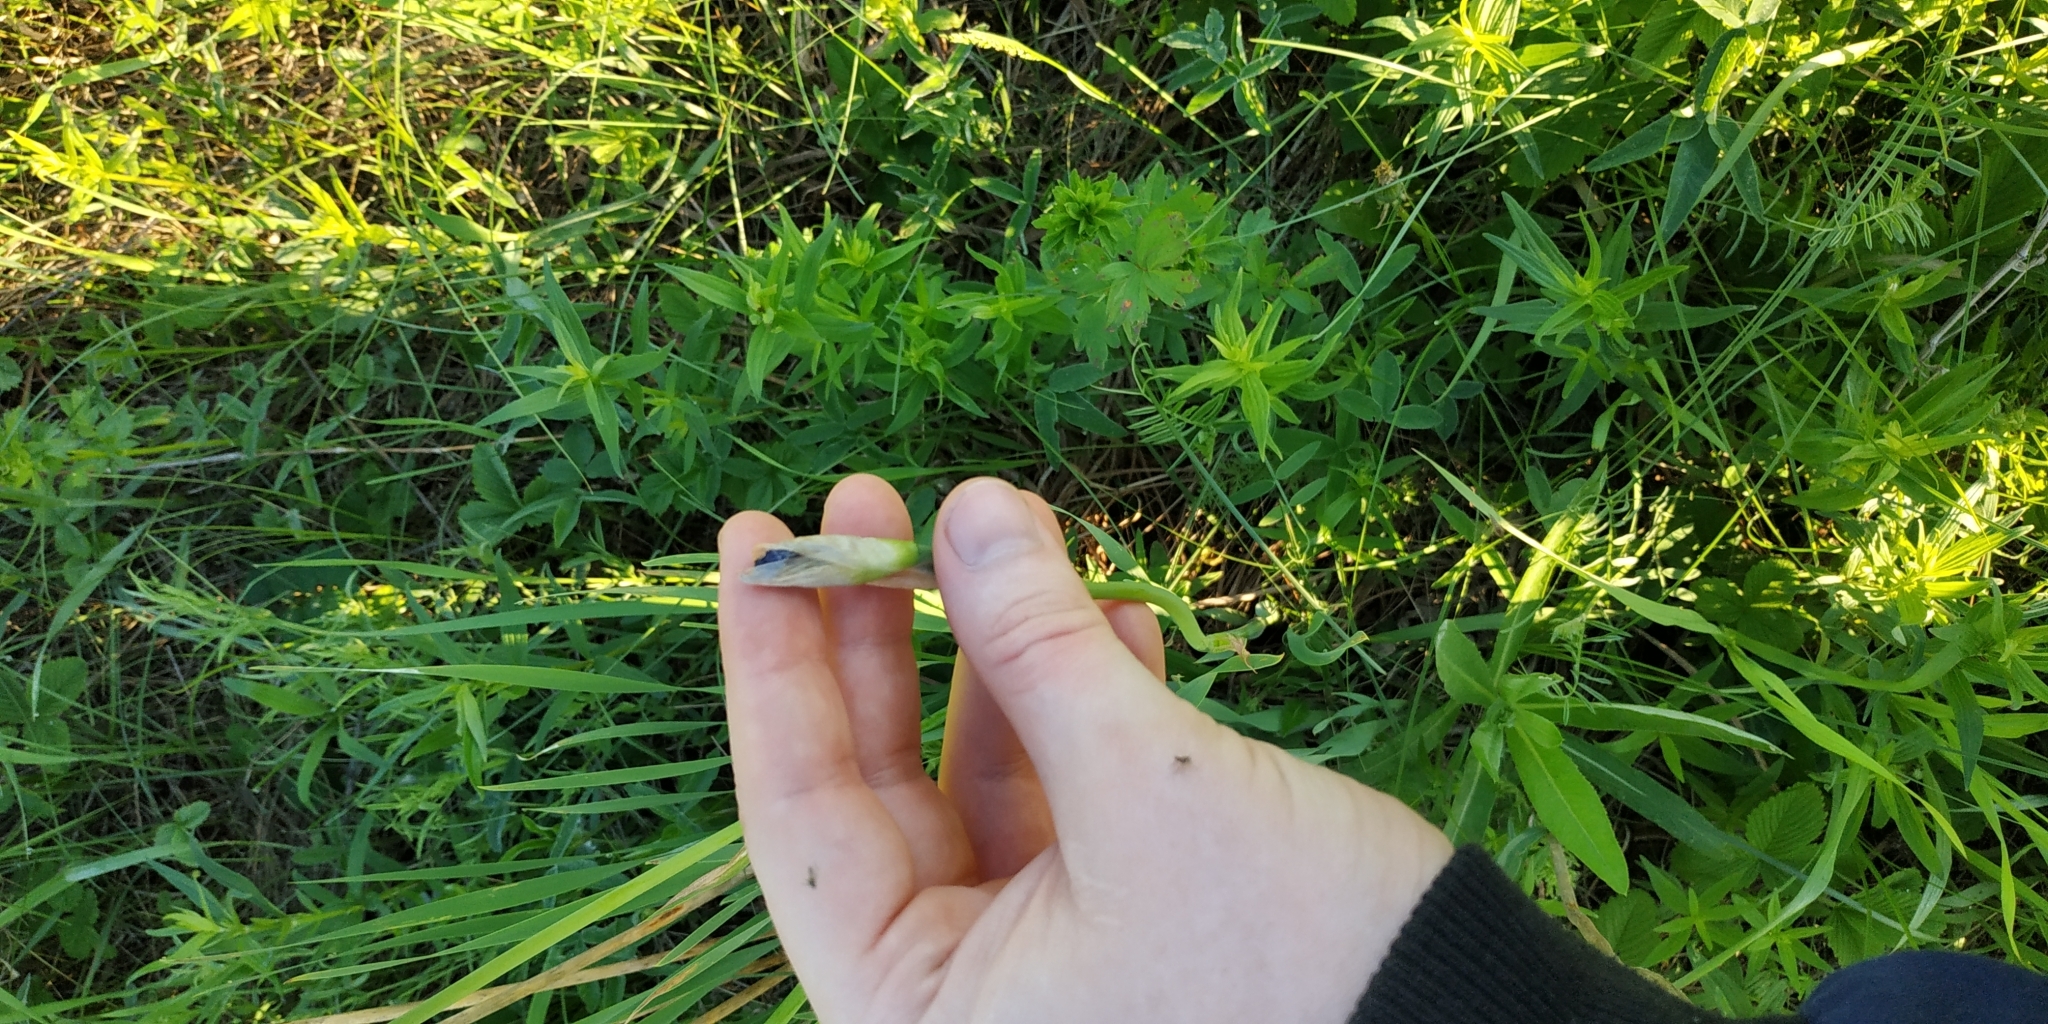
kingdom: Plantae
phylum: Tracheophyta
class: Liliopsida
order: Asparagales
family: Iridaceae
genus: Iris
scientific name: Iris sibirica
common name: Siberian iris
